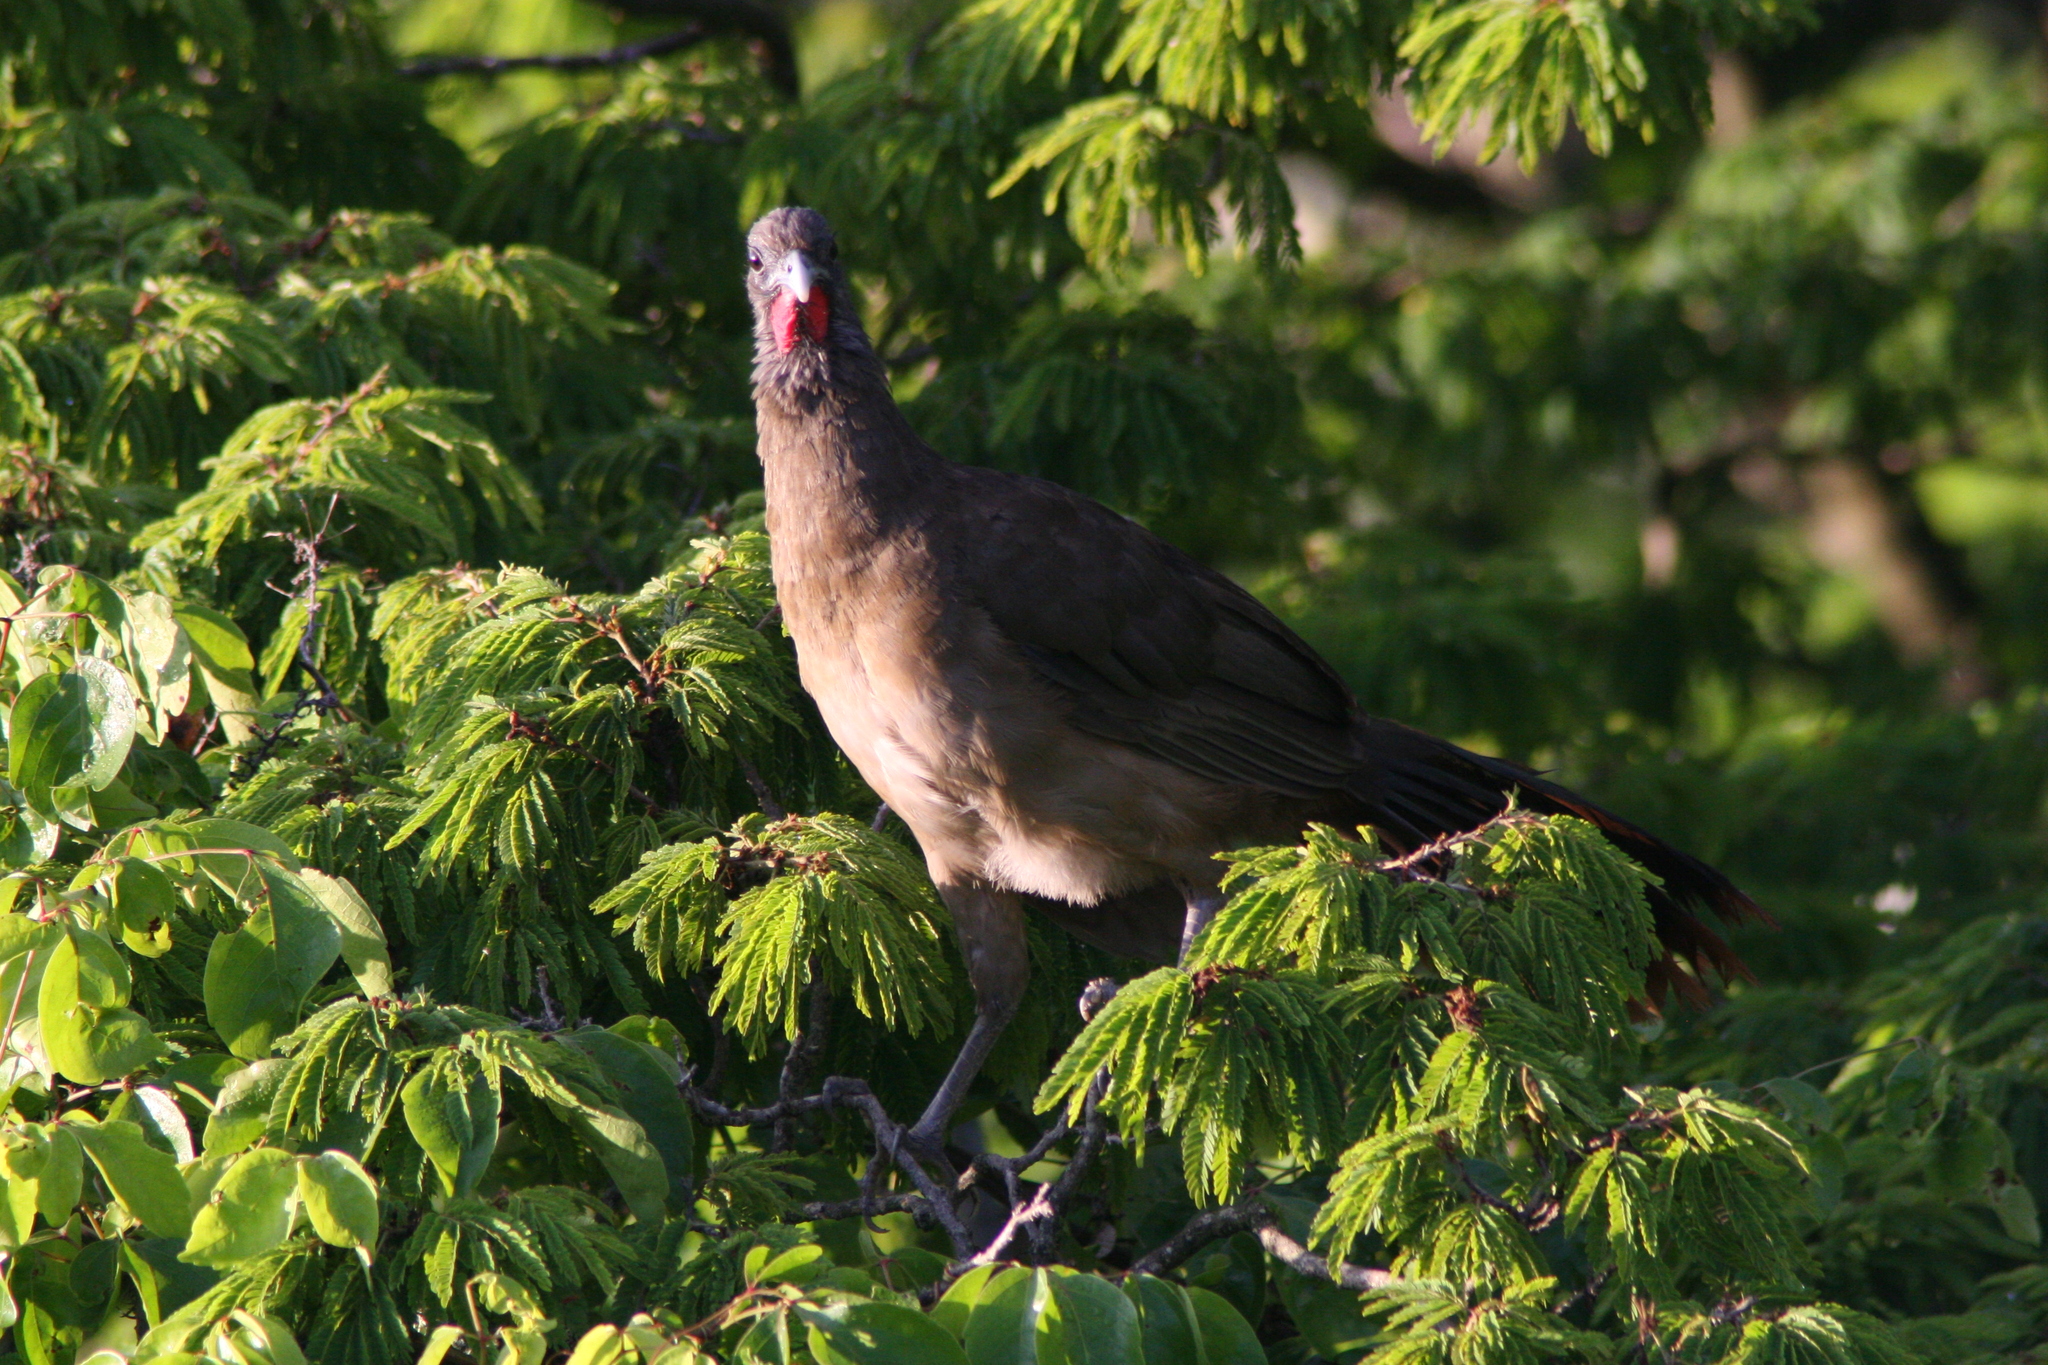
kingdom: Animalia
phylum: Chordata
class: Aves
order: Galliformes
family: Cracidae
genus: Ortalis
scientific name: Ortalis ruficauda
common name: Rufous-vented chachalaca
